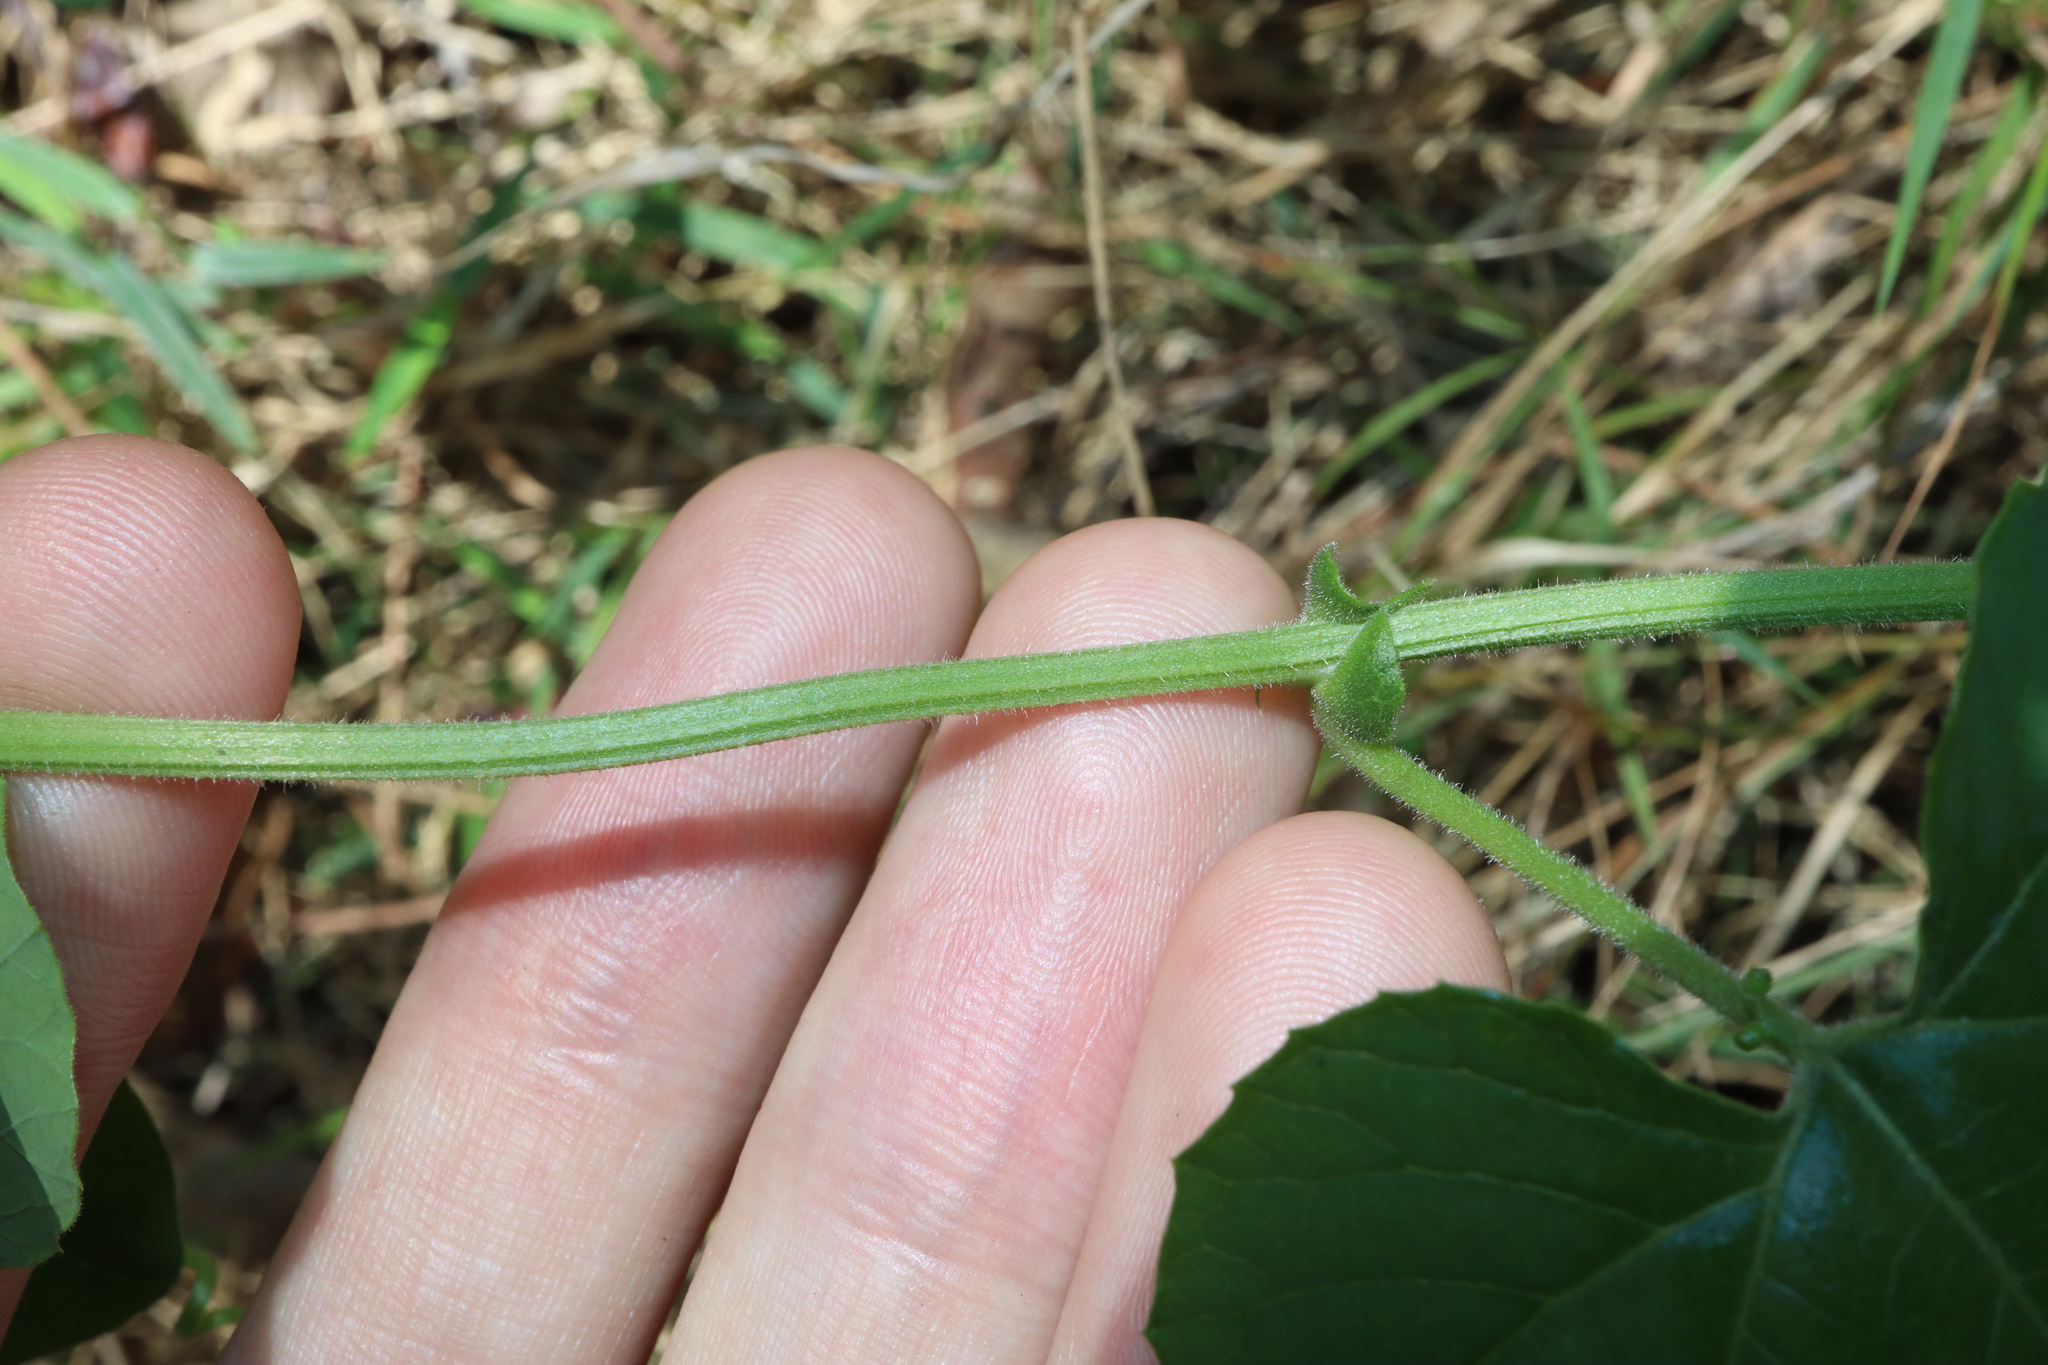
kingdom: Plantae
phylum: Tracheophyta
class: Magnoliopsida
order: Malpighiales
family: Passifloraceae
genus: Passiflora
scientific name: Passiflora morifolia
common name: Woodland passionflower
